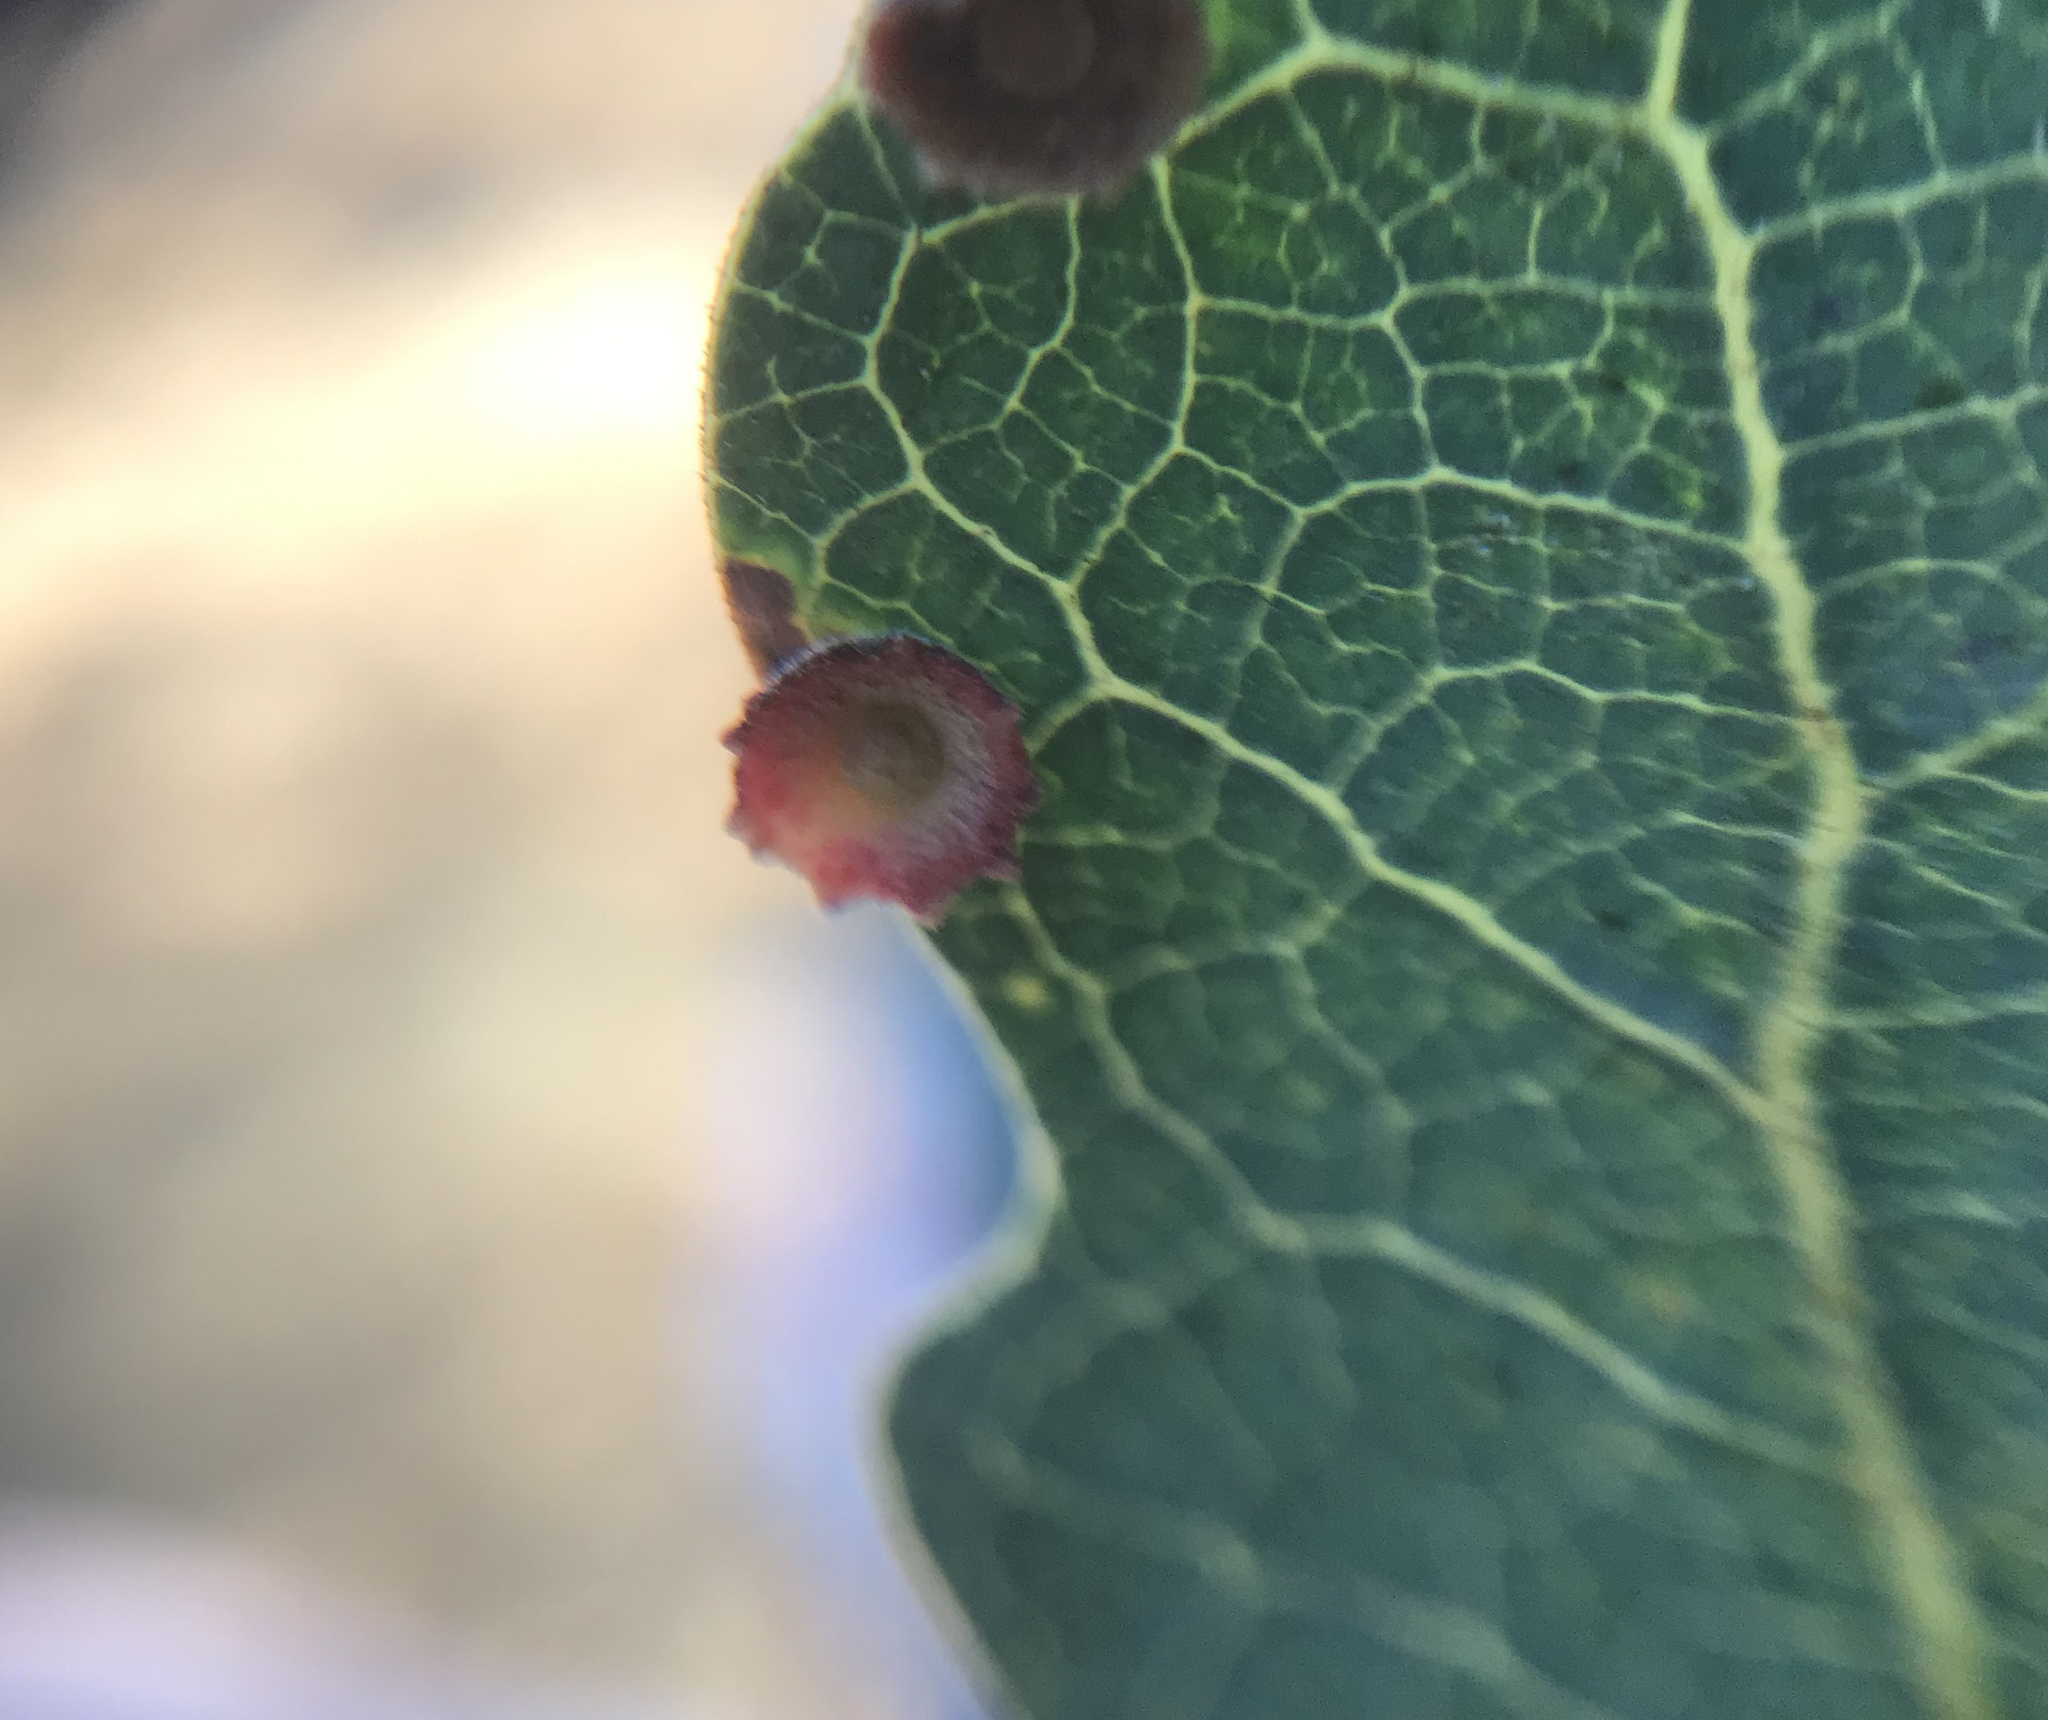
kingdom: Animalia
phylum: Arthropoda
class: Insecta
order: Hymenoptera
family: Cynipidae
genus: Andricus
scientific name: Andricus
